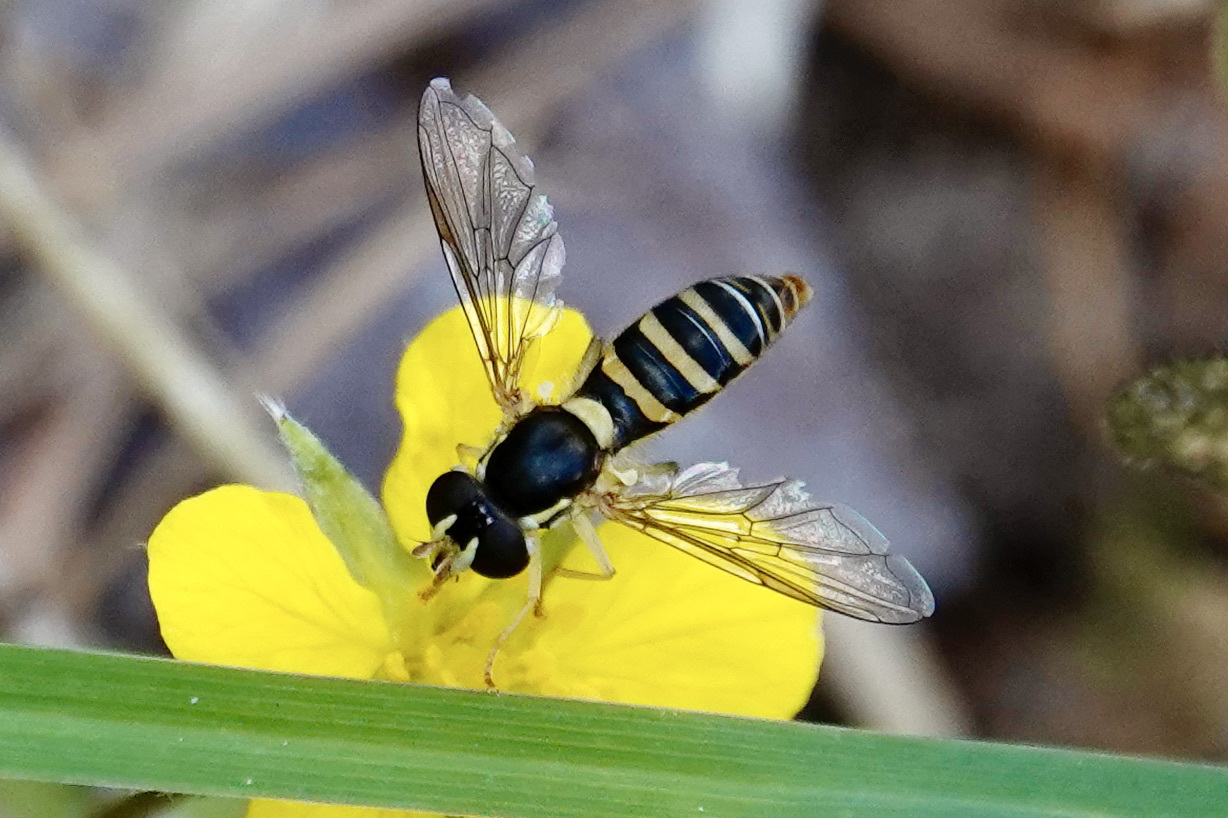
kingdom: Animalia
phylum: Arthropoda
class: Insecta
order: Diptera
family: Syrphidae
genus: Sphaerophoria
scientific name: Sphaerophoria contigua
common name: Tufted globetail
